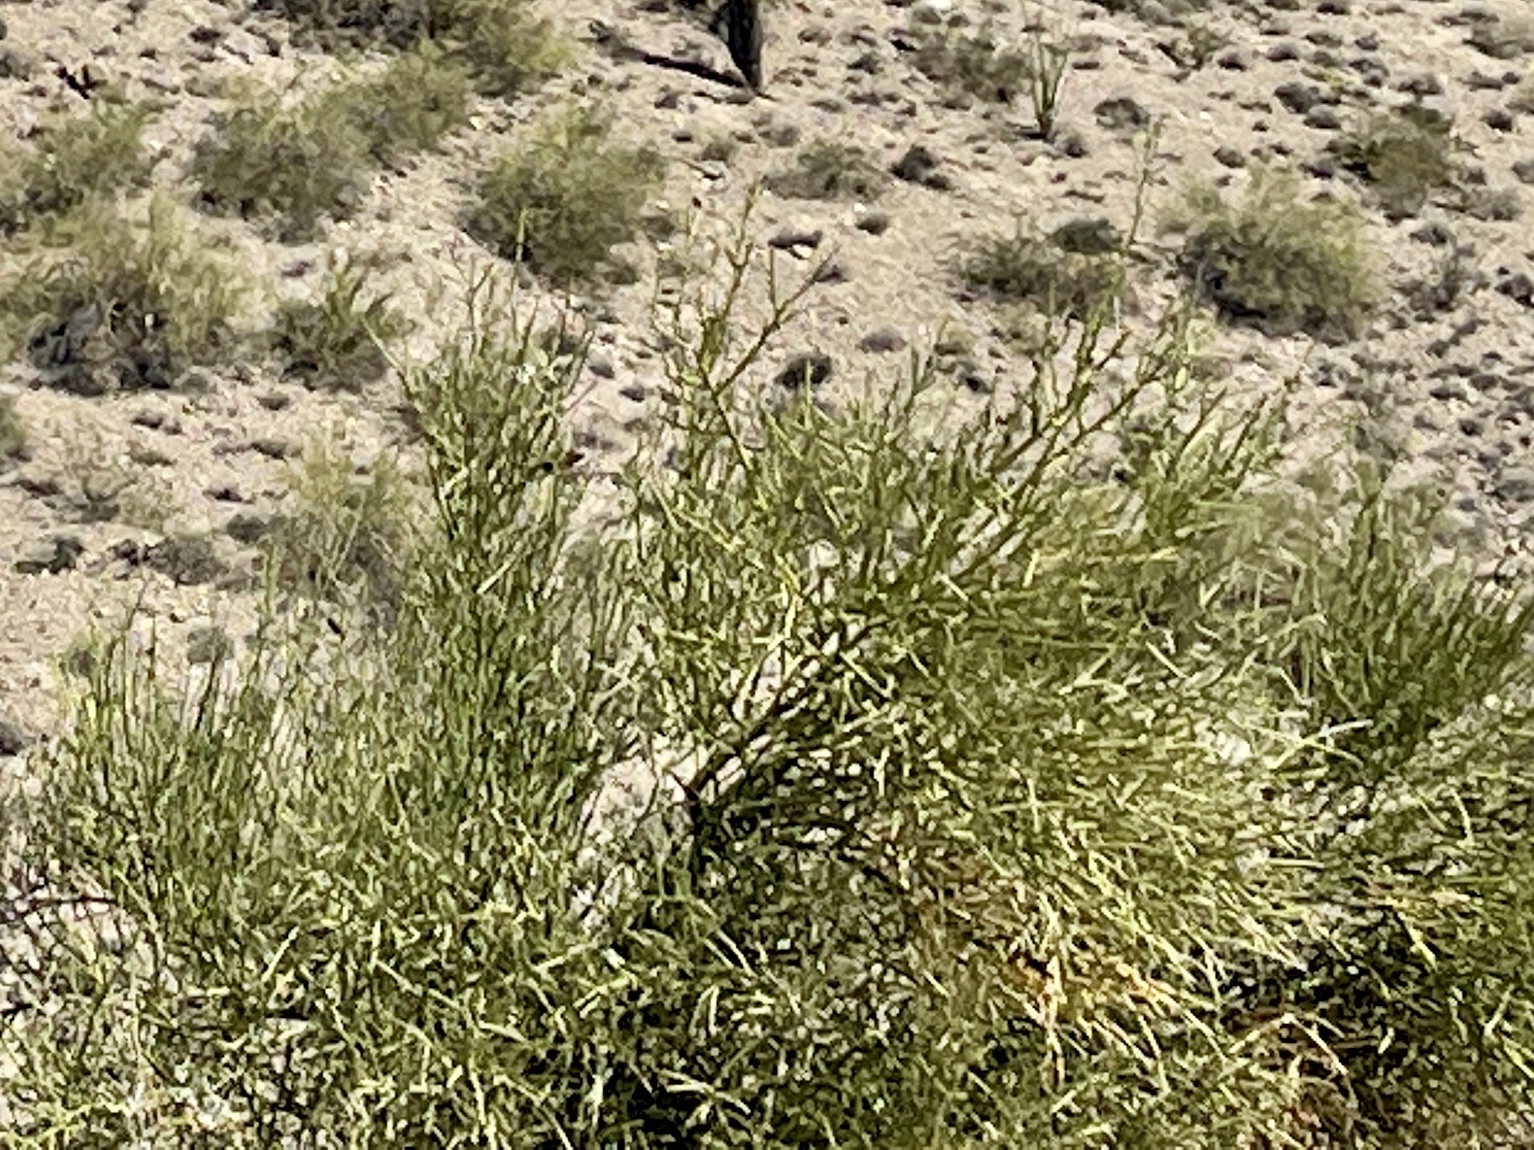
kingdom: Plantae
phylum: Tracheophyta
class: Magnoliopsida
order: Celastrales
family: Celastraceae
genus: Canotia
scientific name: Canotia holacantha
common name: Crucifixion thorns
